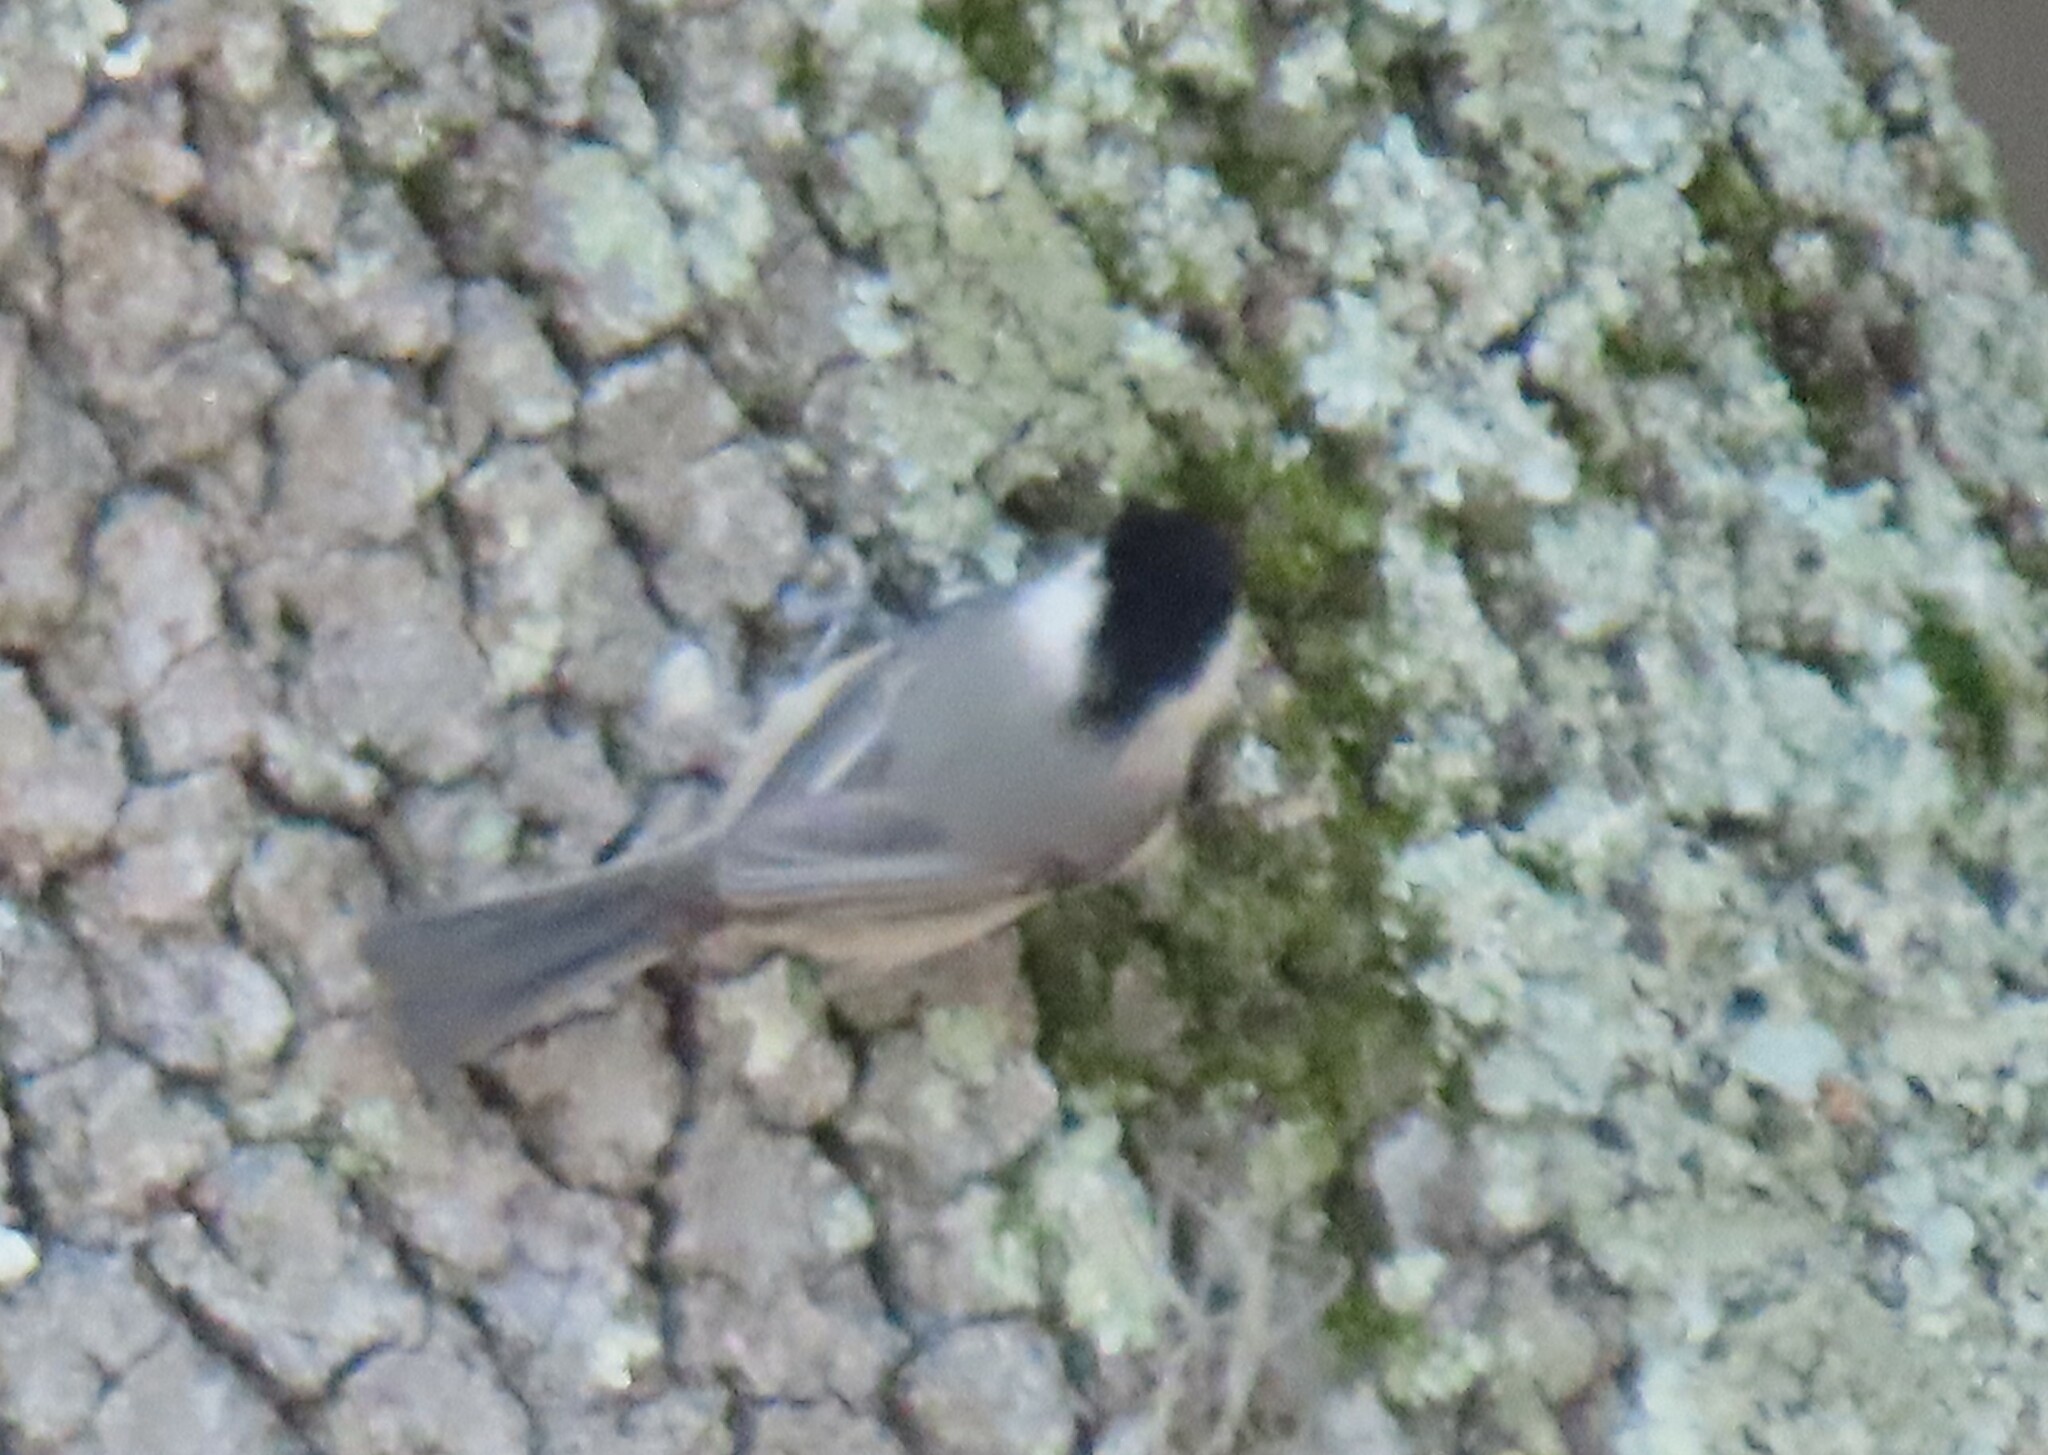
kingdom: Animalia
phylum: Chordata
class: Aves
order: Passeriformes
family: Paridae
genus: Poecile
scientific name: Poecile carolinensis
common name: Carolina chickadee
